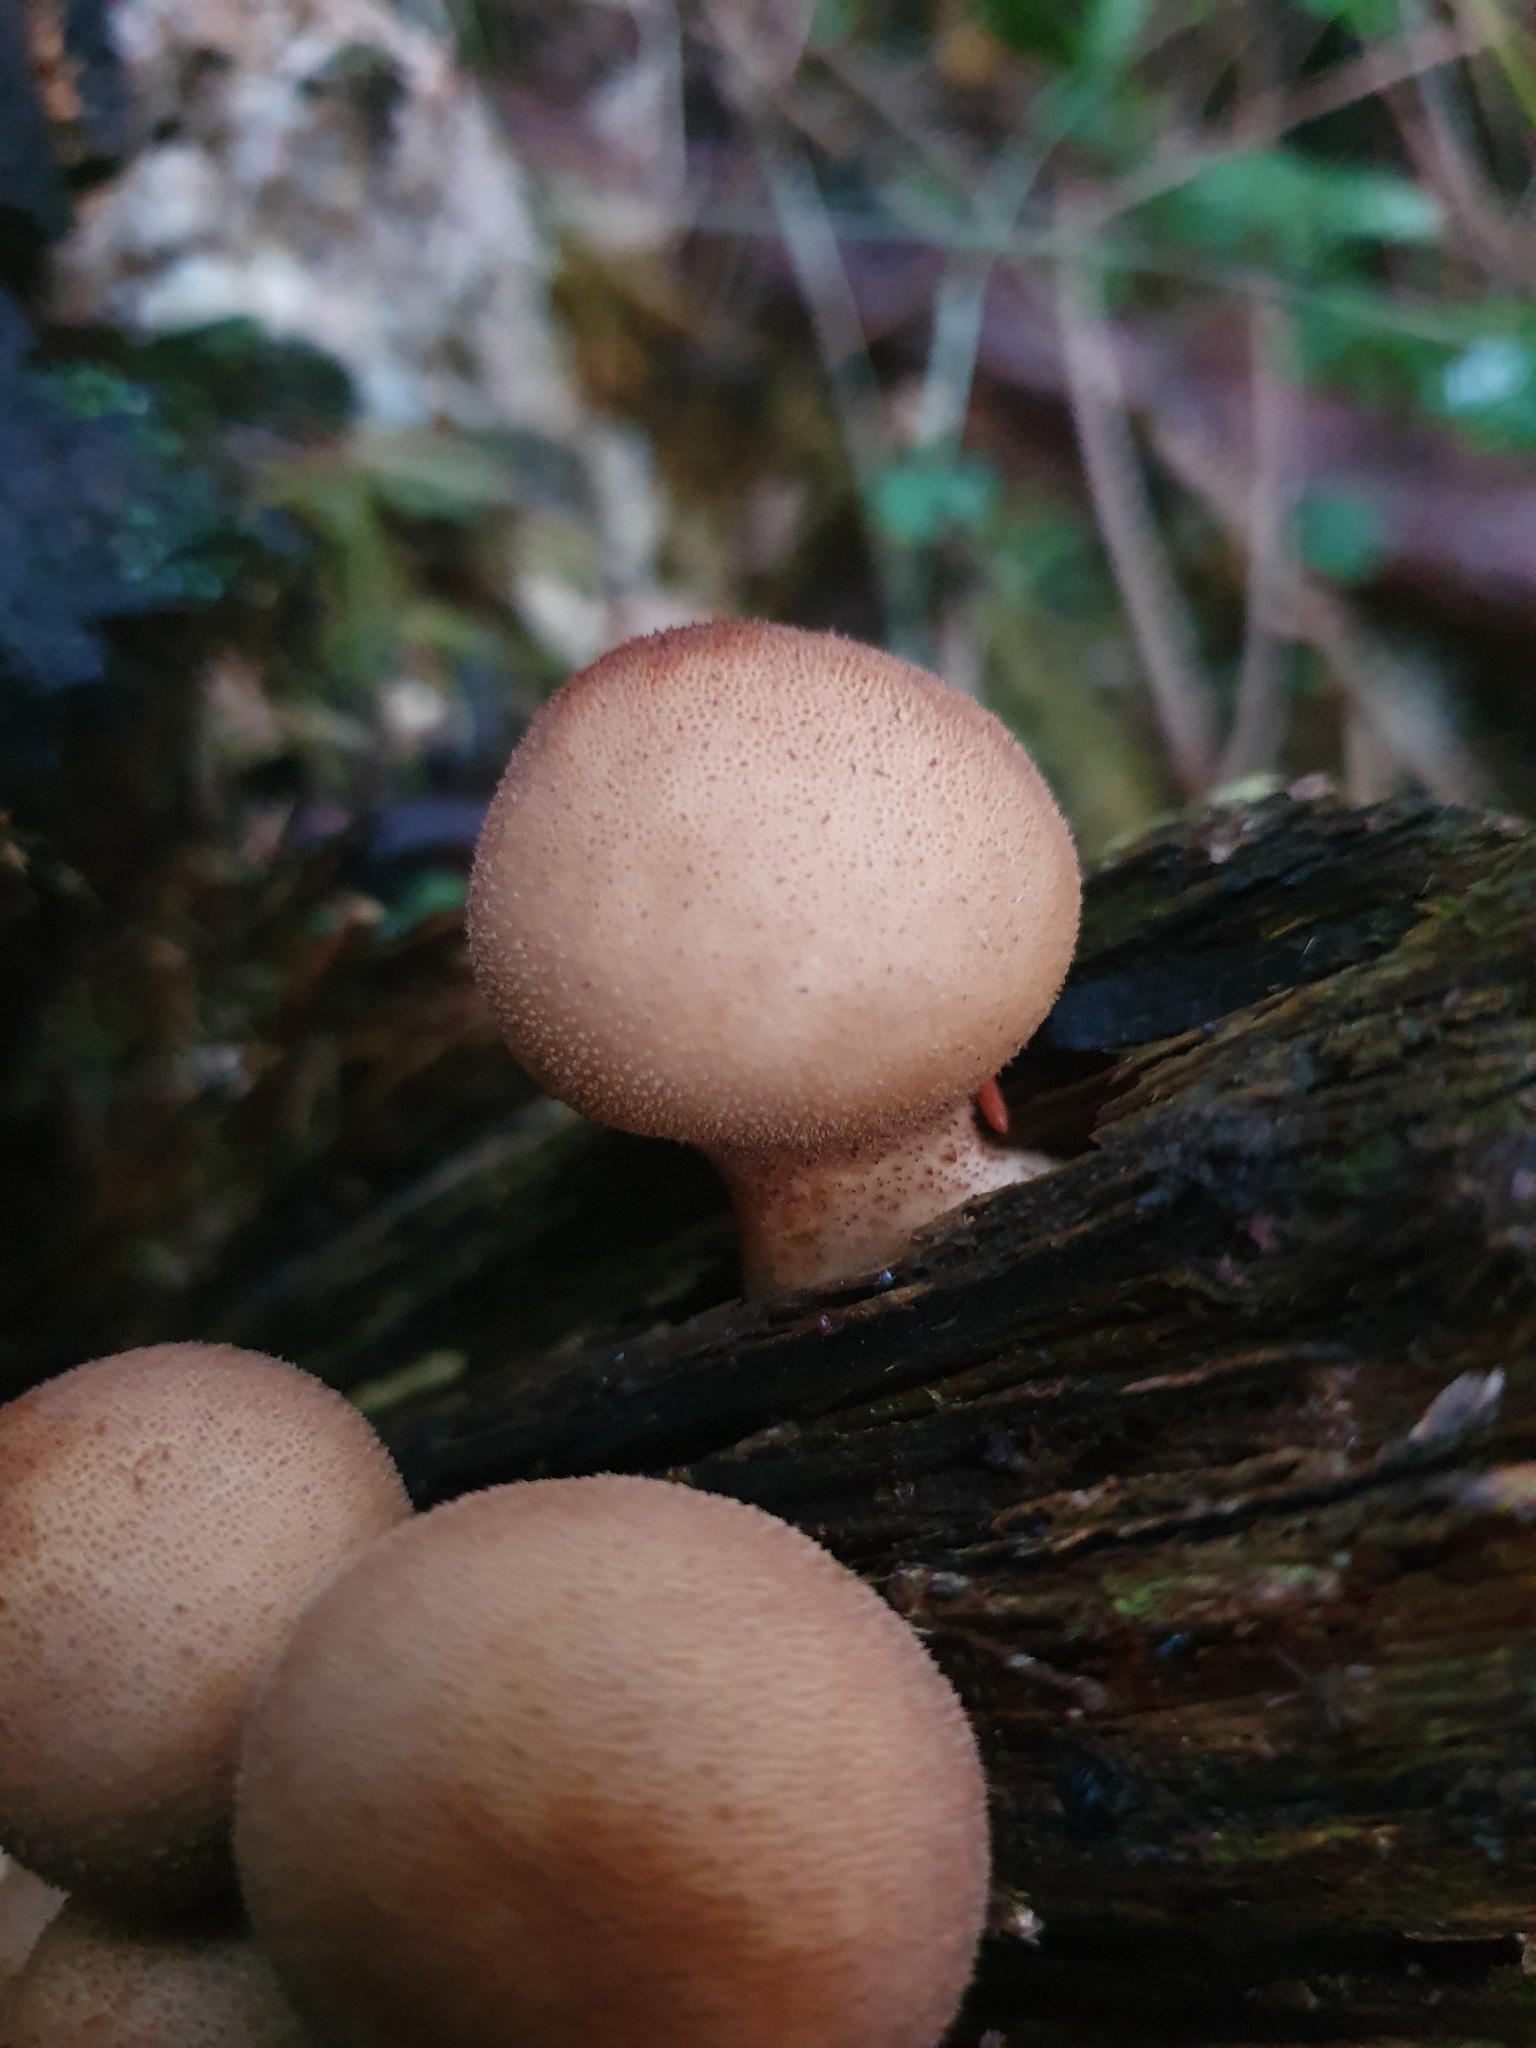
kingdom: Fungi
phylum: Basidiomycota
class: Agaricomycetes
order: Agaricales
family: Lycoperdaceae
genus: Apioperdon
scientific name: Apioperdon pyriforme
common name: Pear-shaped puffball
